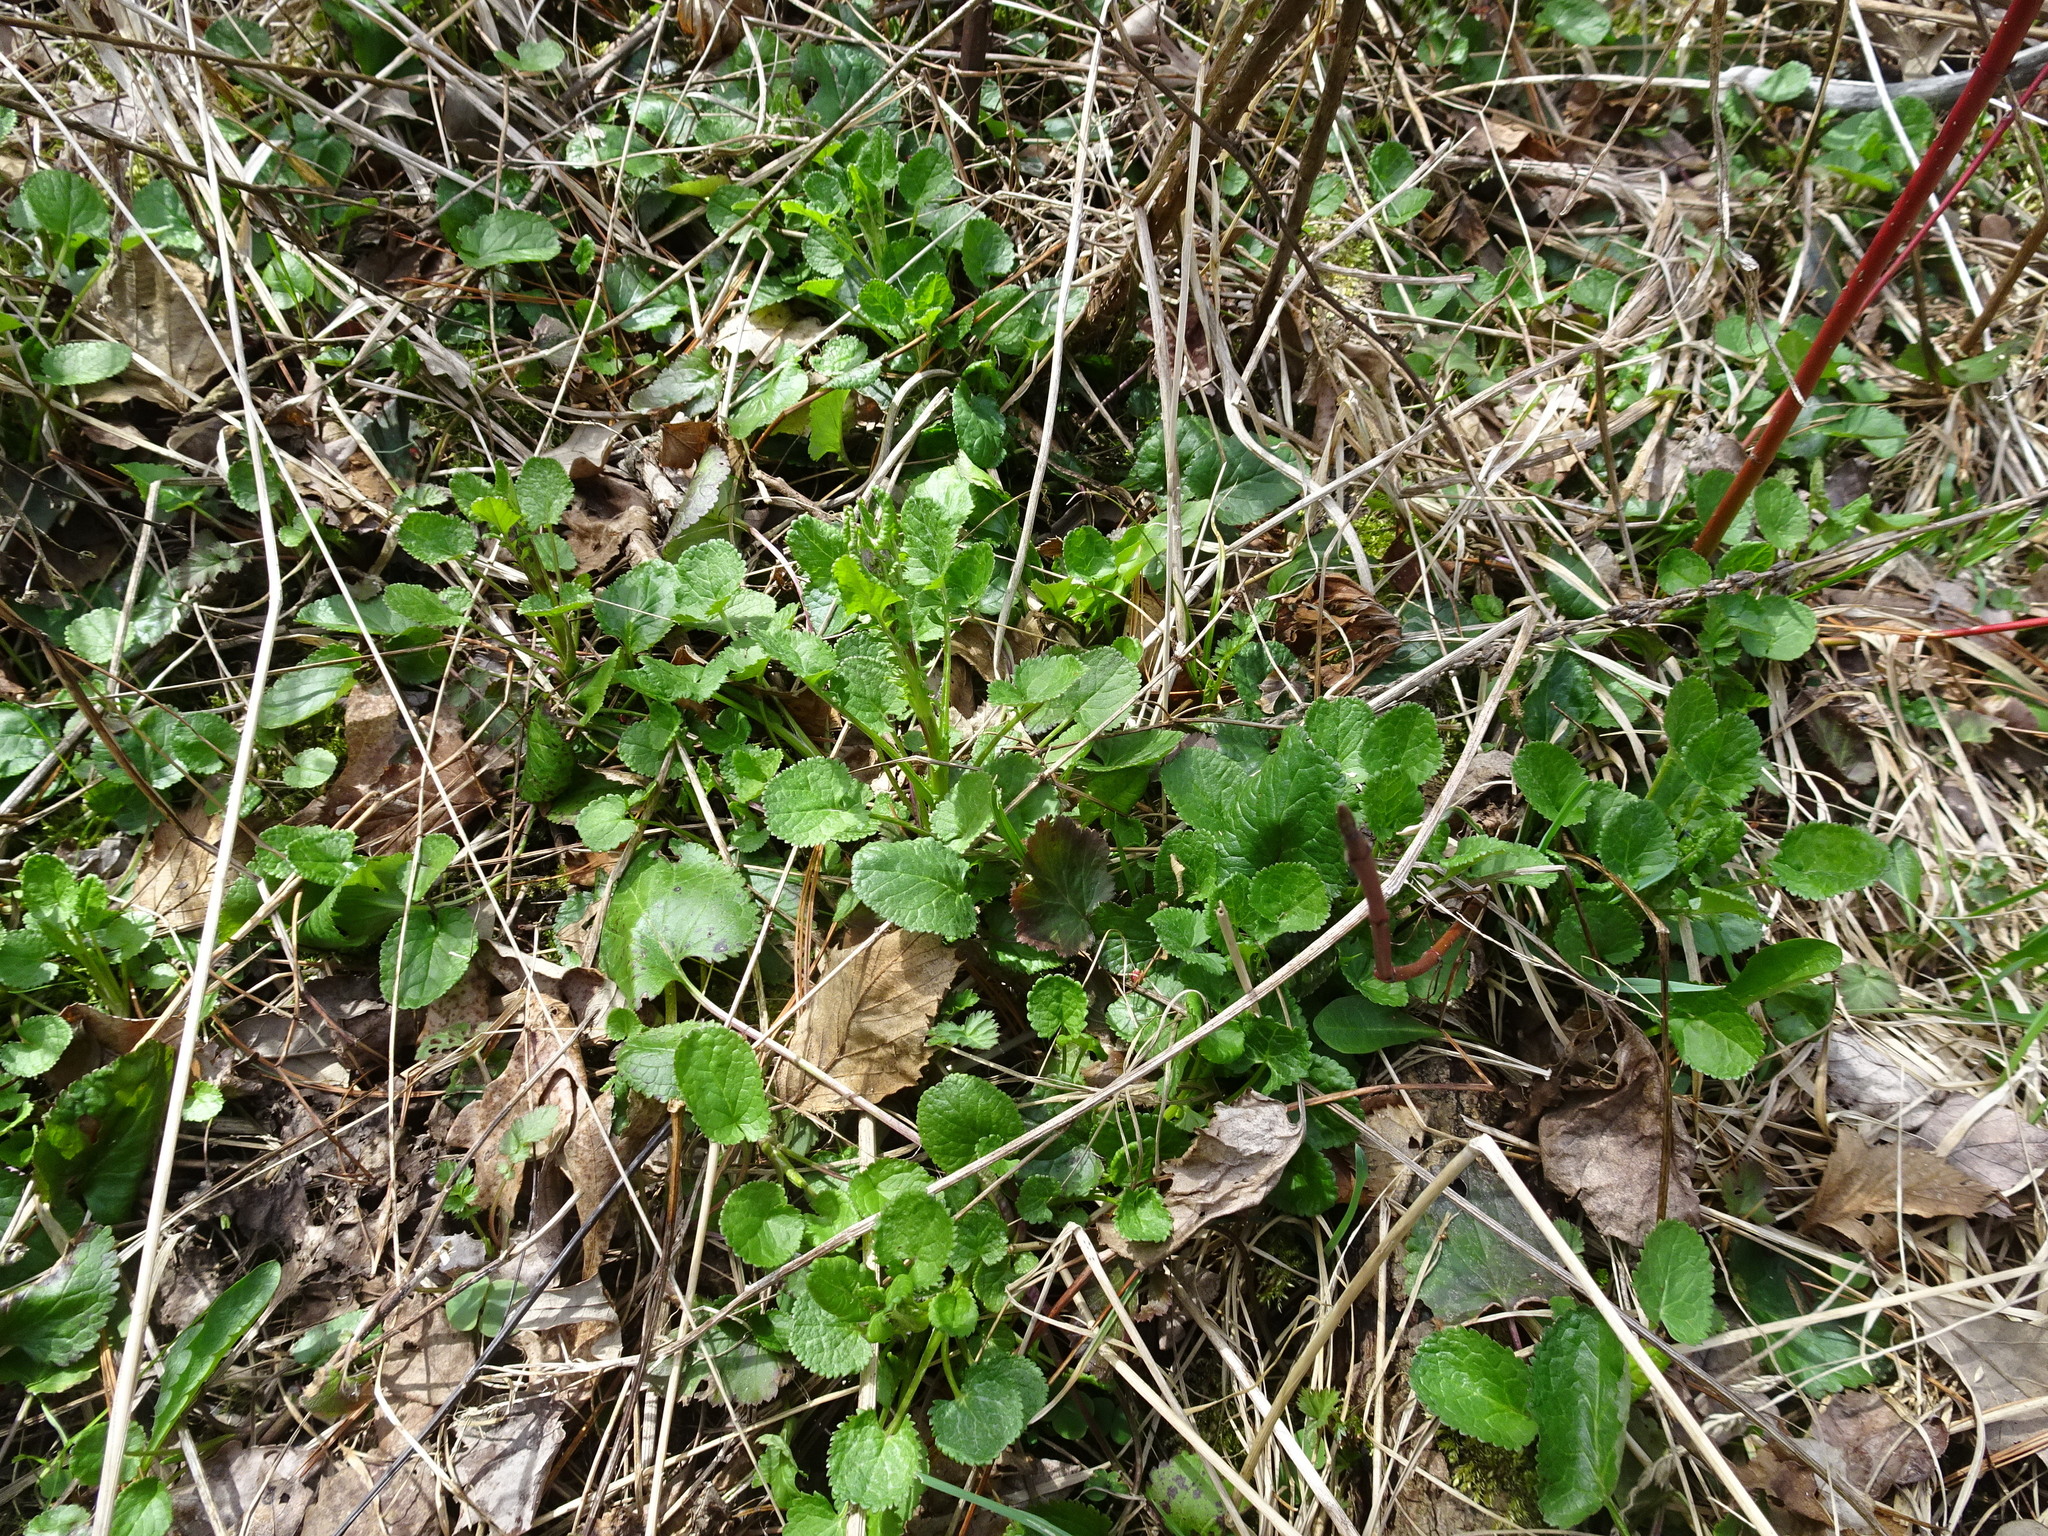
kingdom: Plantae
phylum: Tracheophyta
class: Magnoliopsida
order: Asterales
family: Asteraceae
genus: Packera
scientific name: Packera aurea
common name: Golden groundsel
